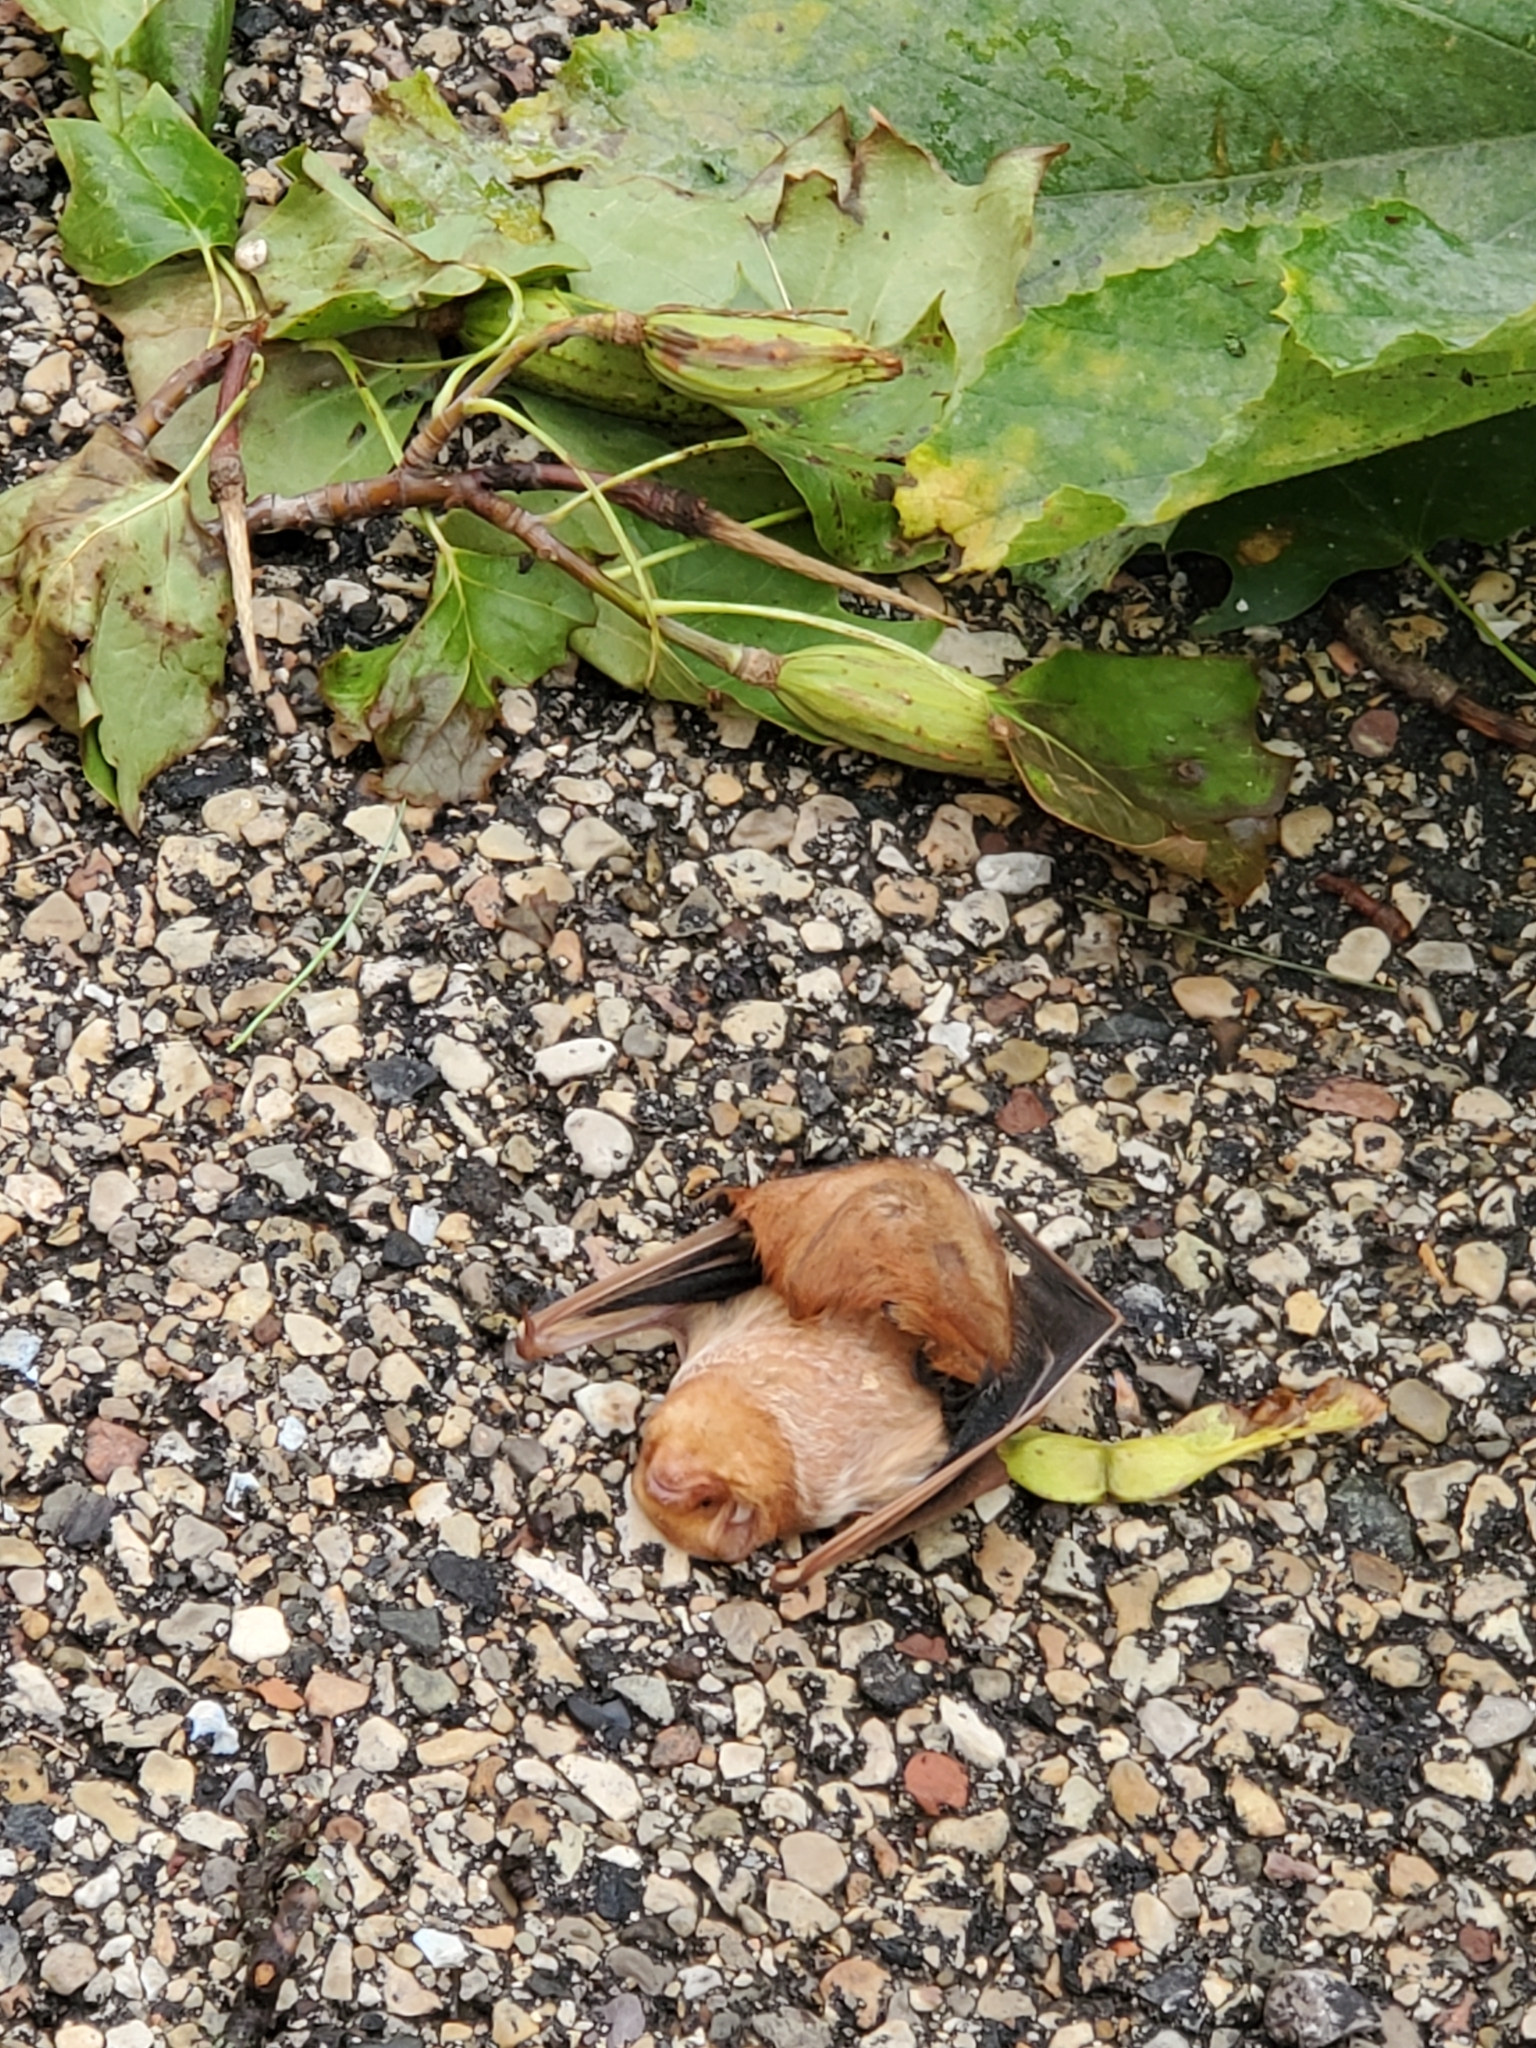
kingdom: Animalia
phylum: Chordata
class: Mammalia
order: Chiroptera
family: Vespertilionidae
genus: Lasiurus
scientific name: Lasiurus borealis
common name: Eastern red bat
